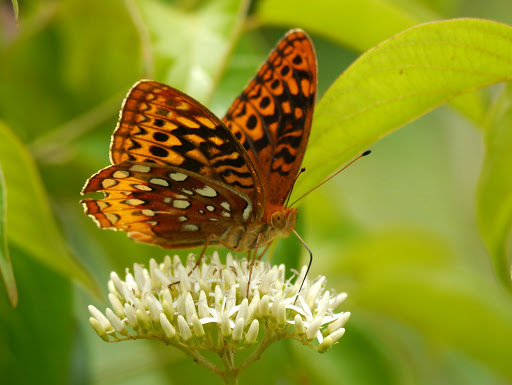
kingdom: Animalia
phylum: Arthropoda
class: Insecta
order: Lepidoptera
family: Nymphalidae
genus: Speyeria
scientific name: Speyeria cybele
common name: Great spangled fritillary
